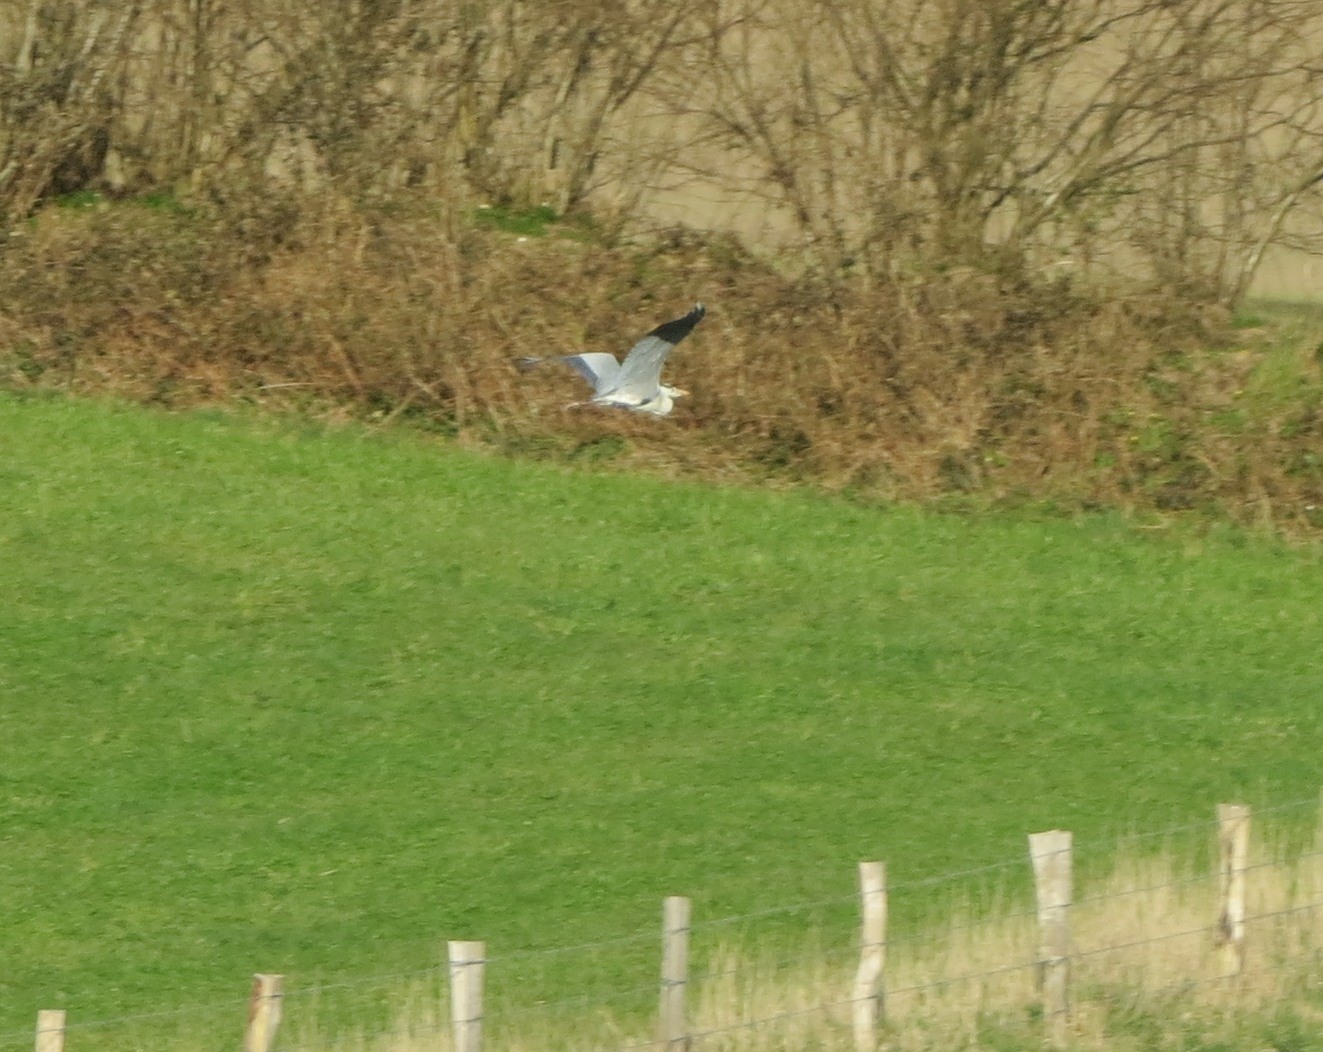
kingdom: Animalia
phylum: Chordata
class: Aves
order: Pelecaniformes
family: Ardeidae
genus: Ardea
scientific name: Ardea cinerea
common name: Grey heron
